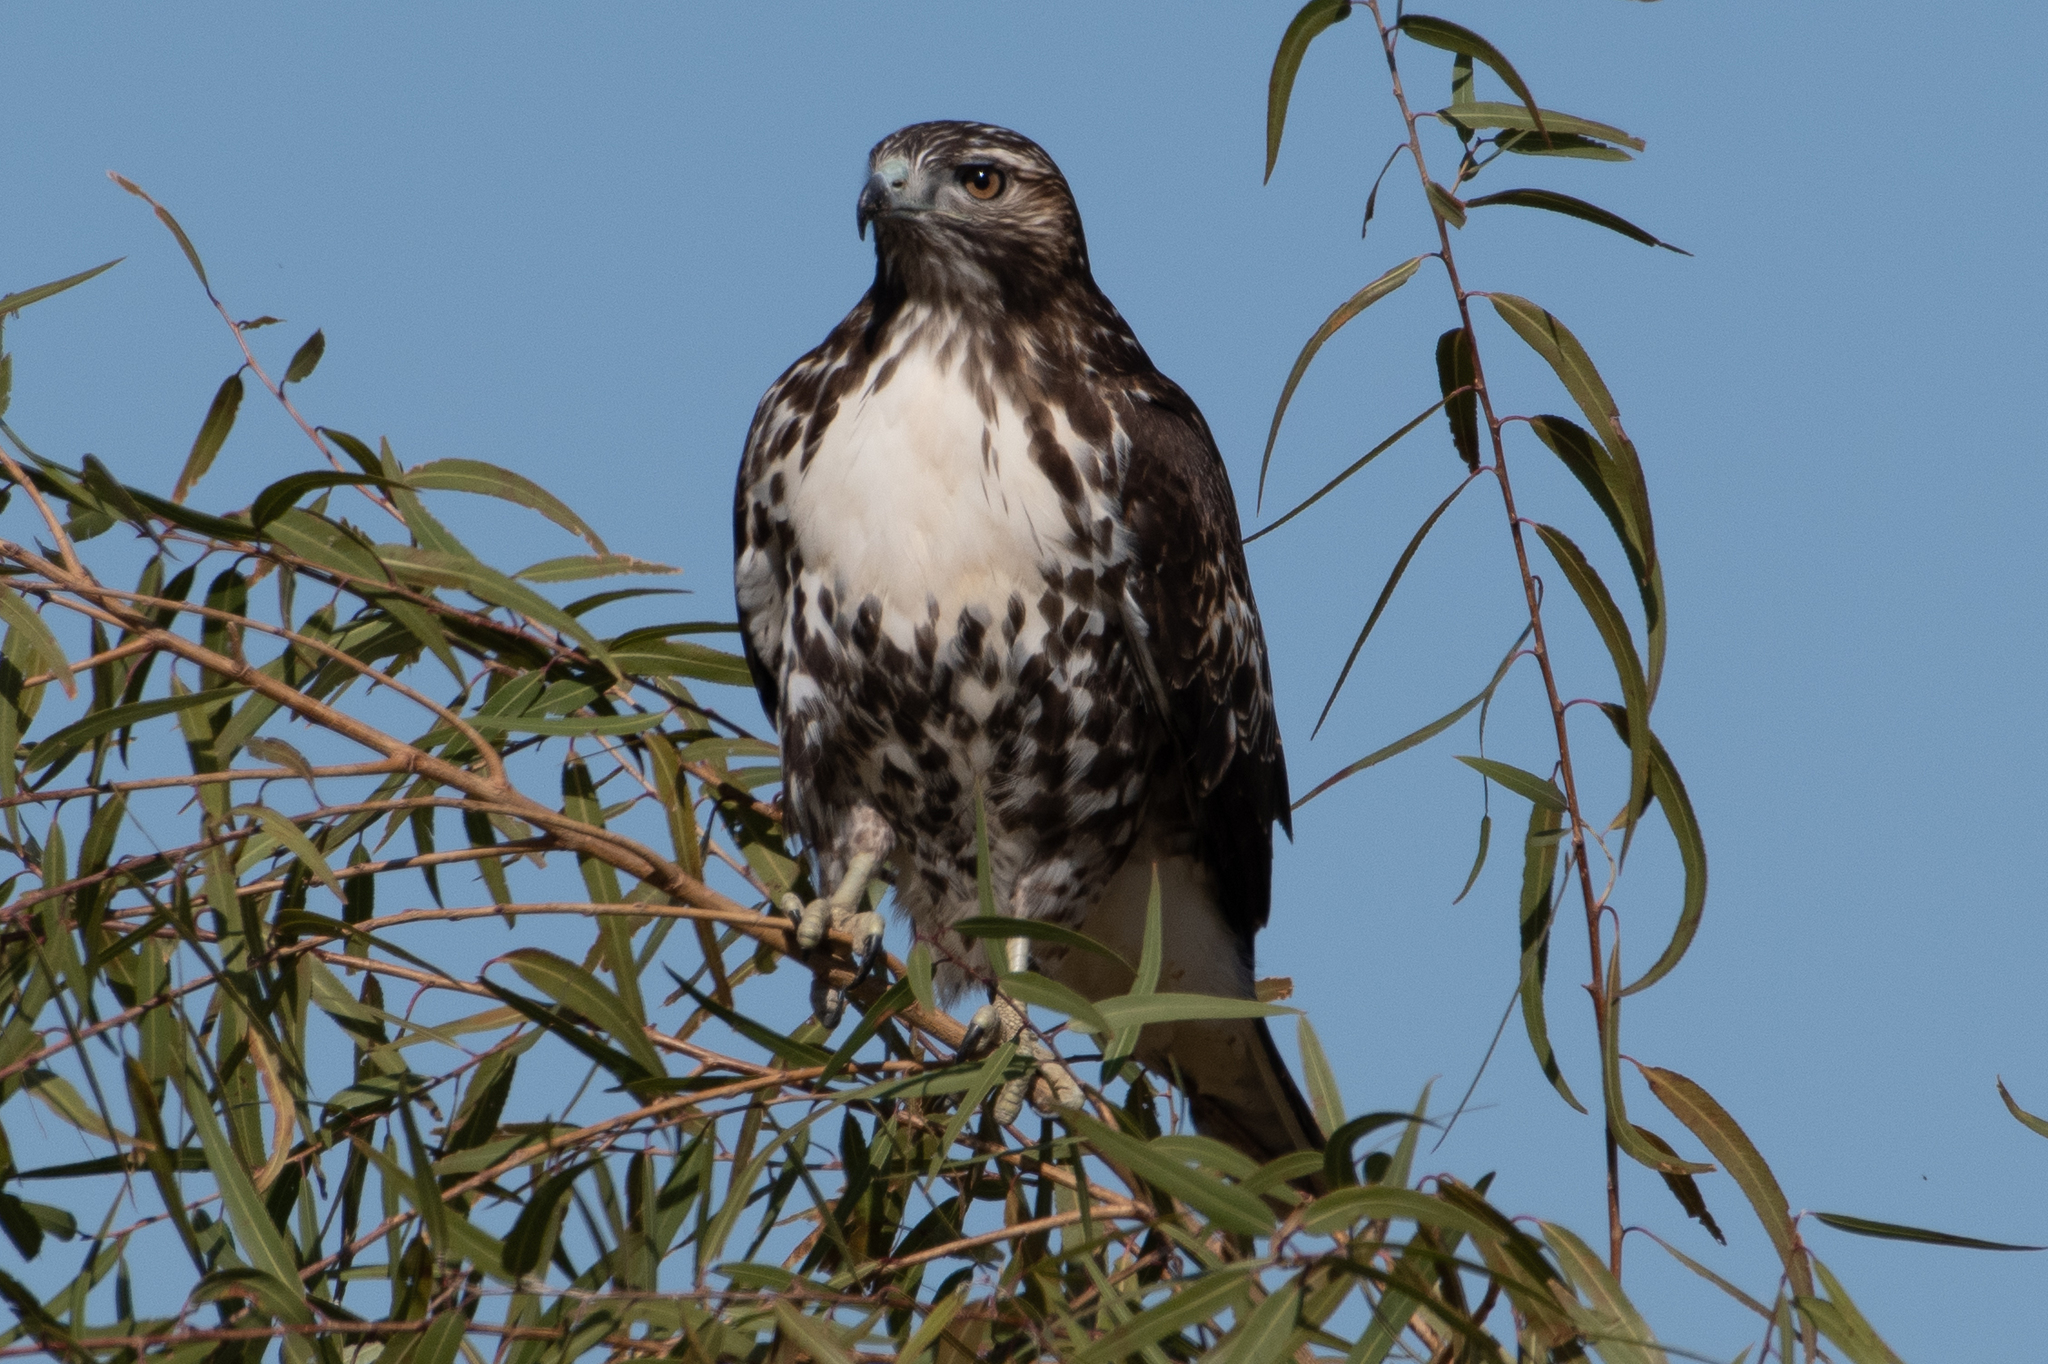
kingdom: Animalia
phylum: Chordata
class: Aves
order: Accipitriformes
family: Accipitridae
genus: Buteo
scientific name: Buteo jamaicensis
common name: Red-tailed hawk
